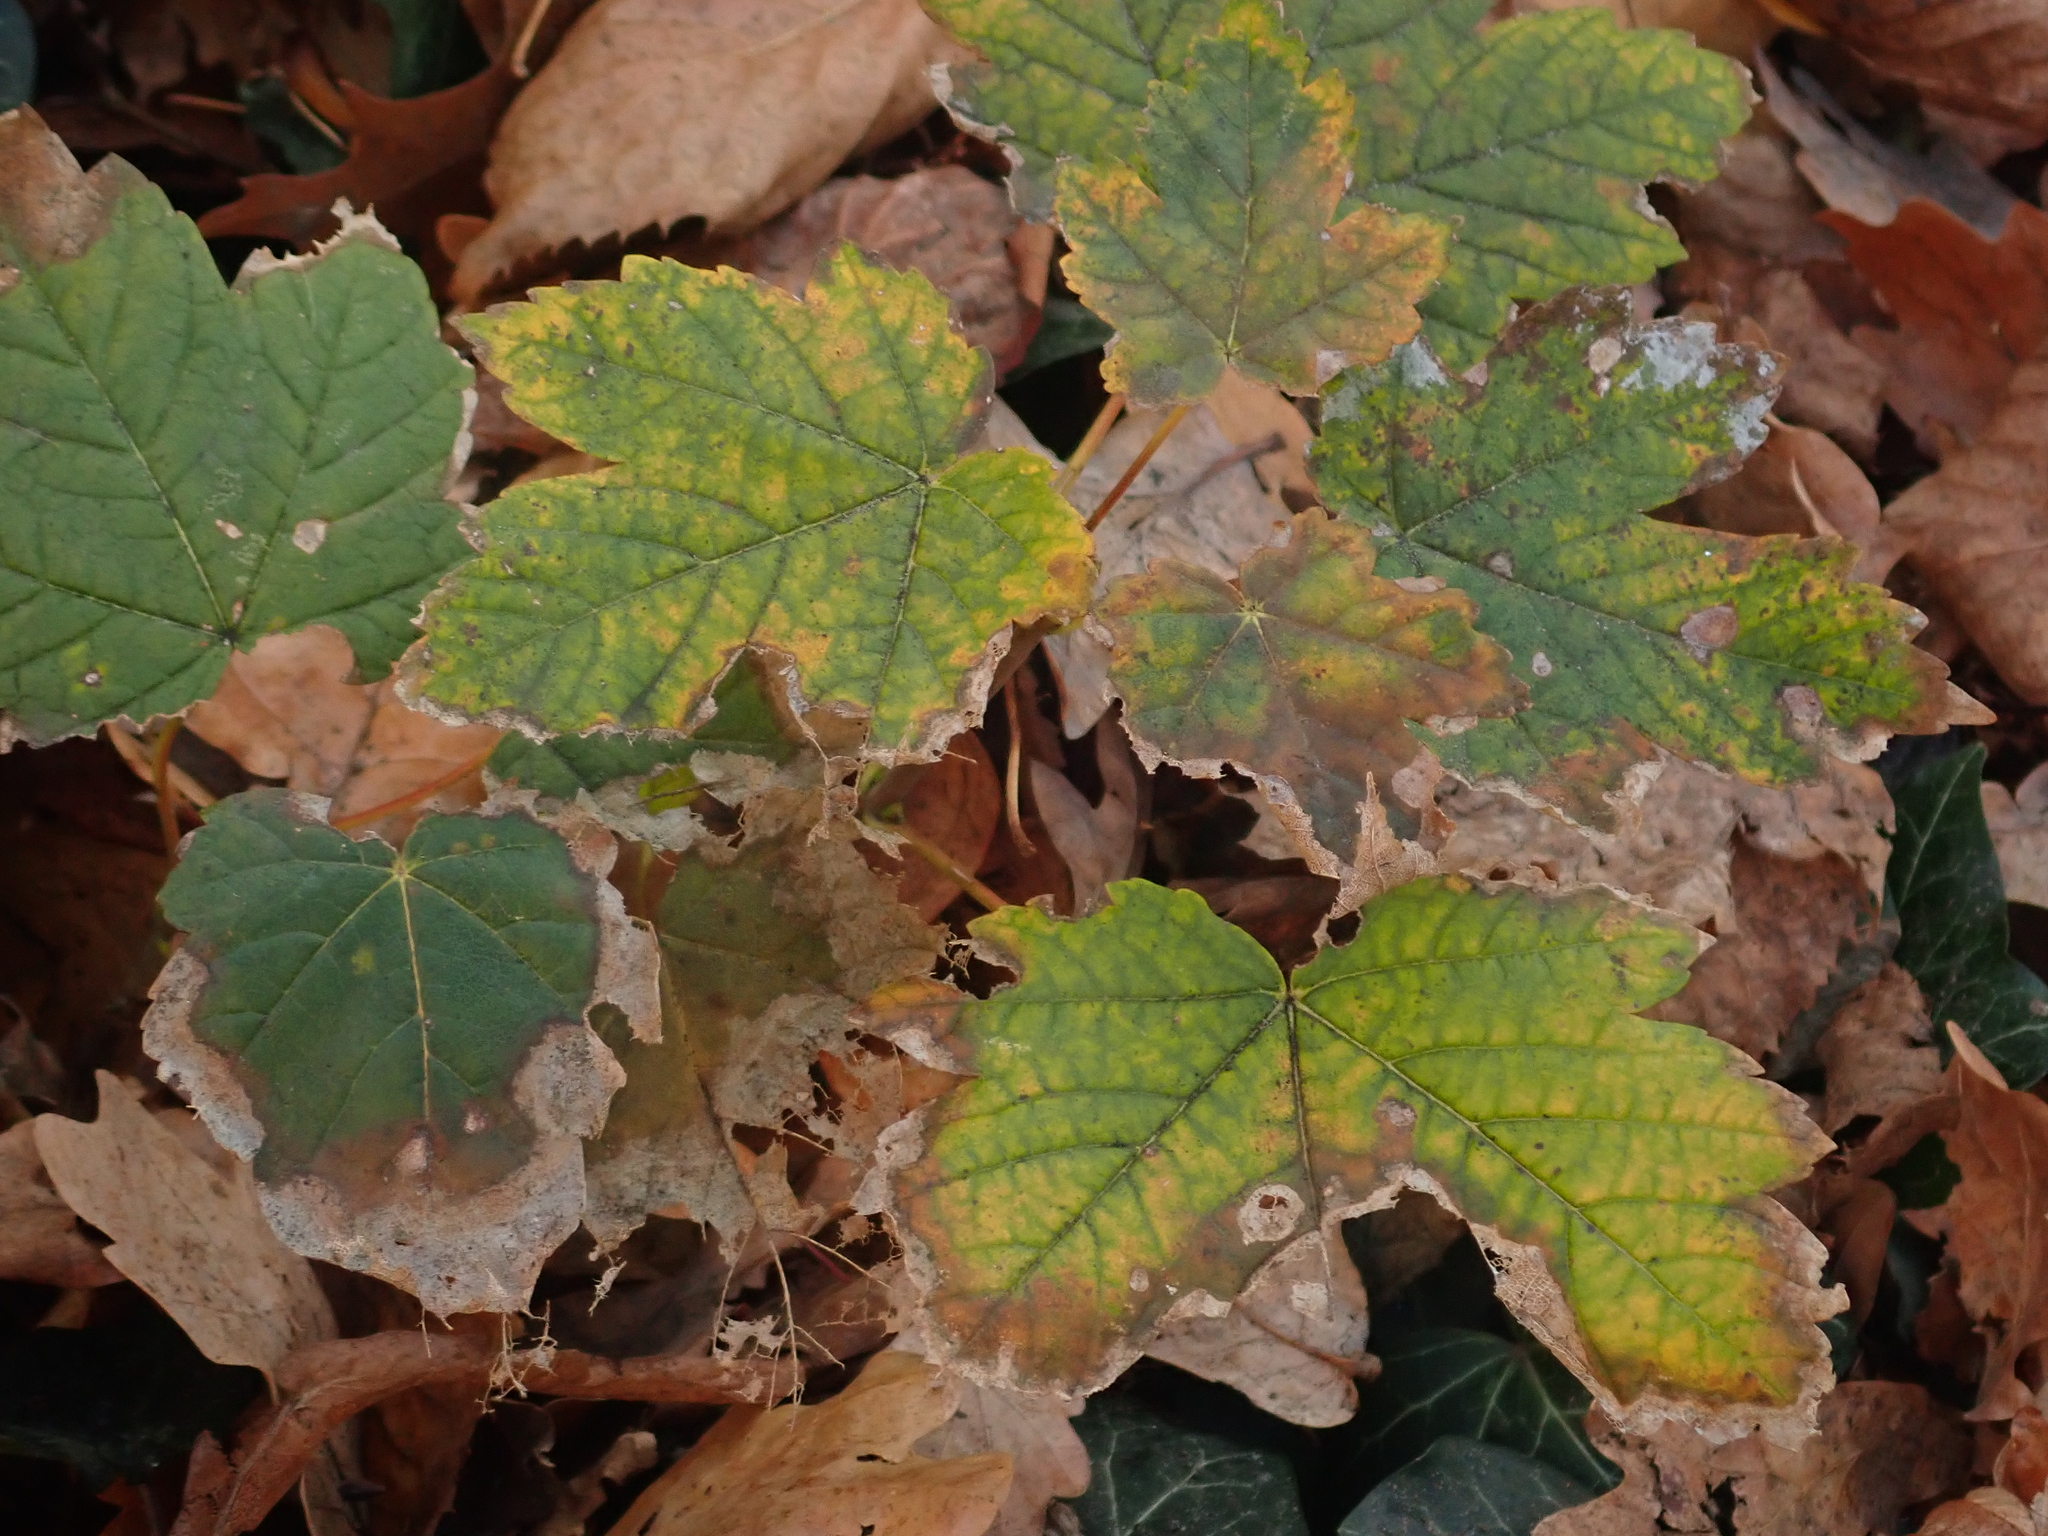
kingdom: Plantae
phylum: Tracheophyta
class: Magnoliopsida
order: Sapindales
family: Sapindaceae
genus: Acer
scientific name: Acer pseudoplatanus
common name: Sycamore
